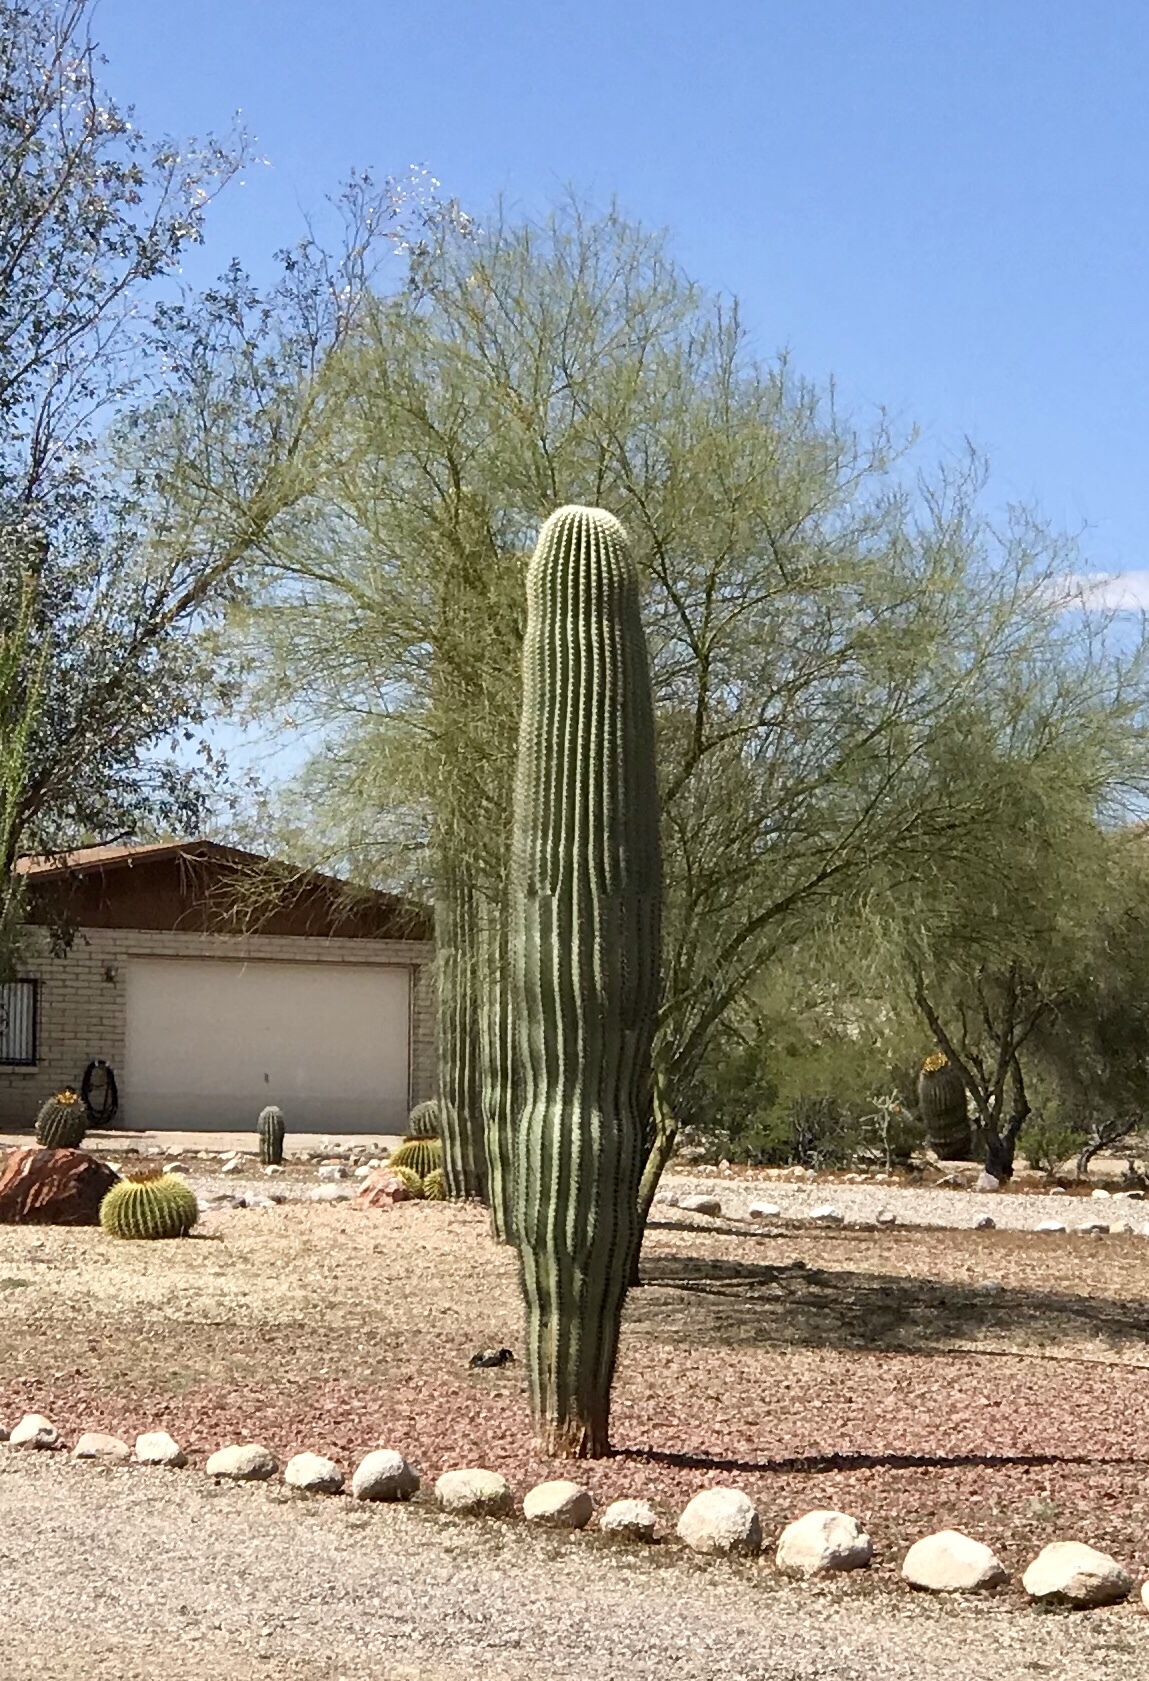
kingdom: Plantae
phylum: Tracheophyta
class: Magnoliopsida
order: Caryophyllales
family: Cactaceae
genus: Carnegiea
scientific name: Carnegiea gigantea
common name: Saguaro
